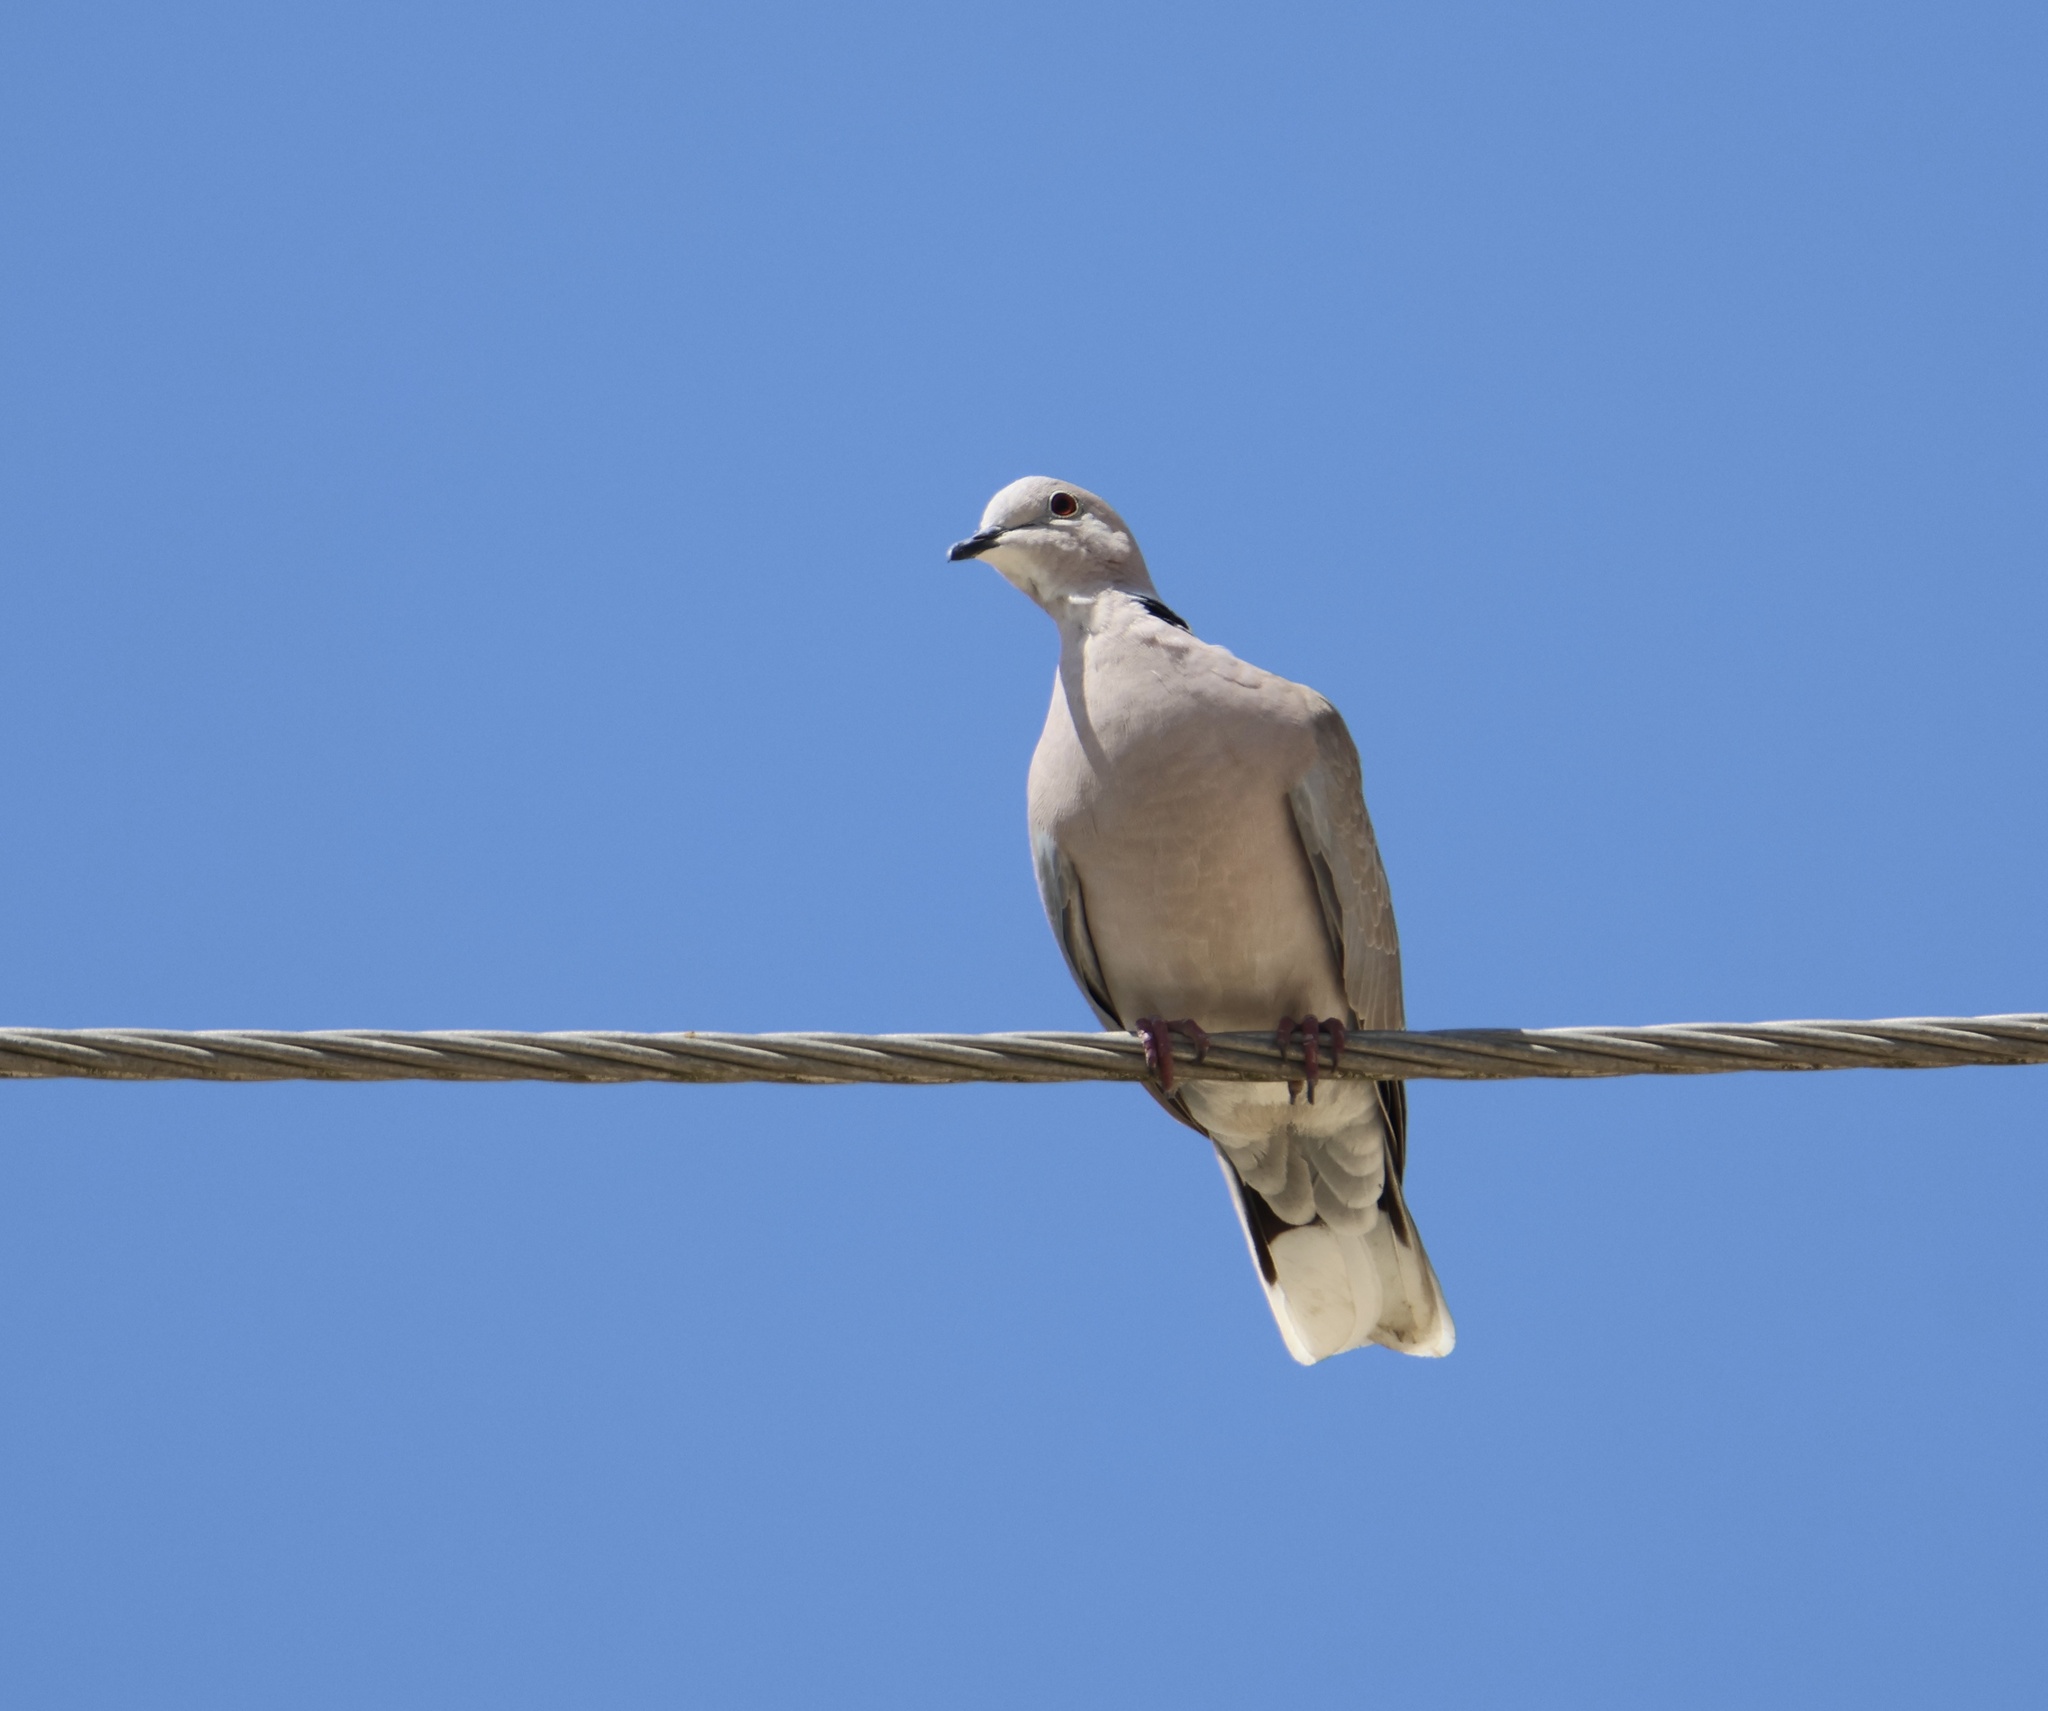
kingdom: Animalia
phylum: Chordata
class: Aves
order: Columbiformes
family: Columbidae
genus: Streptopelia
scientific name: Streptopelia decaocto
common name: Eurasian collared dove
